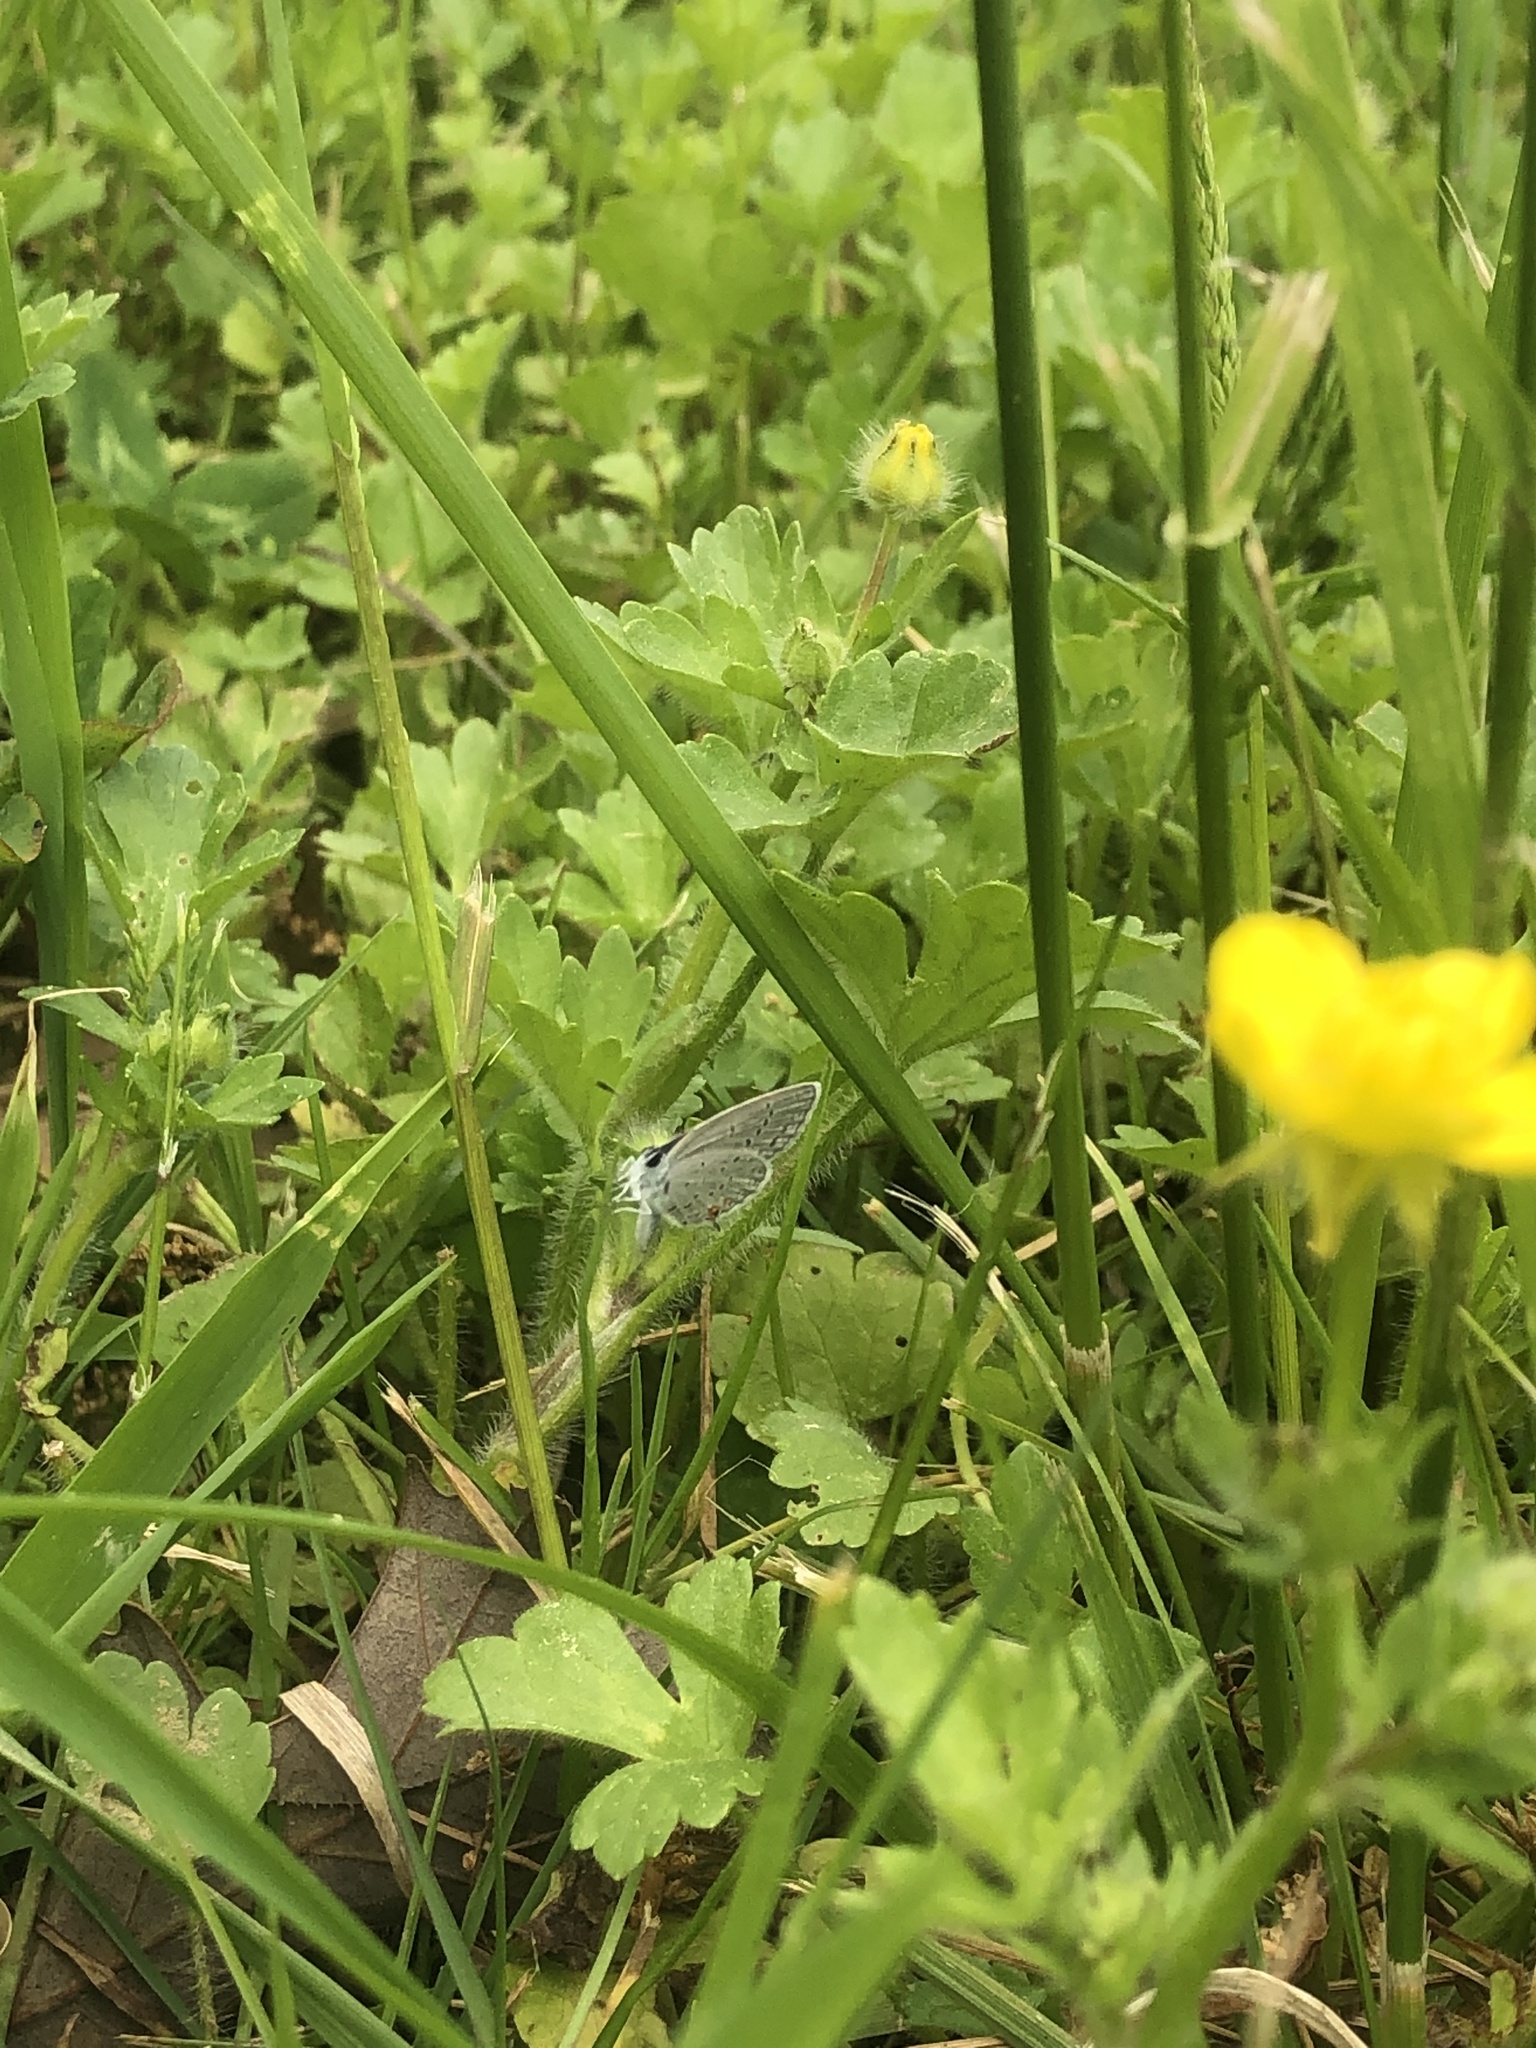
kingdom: Animalia
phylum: Arthropoda
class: Insecta
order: Lepidoptera
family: Lycaenidae
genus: Elkalyce
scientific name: Elkalyce comyntas
